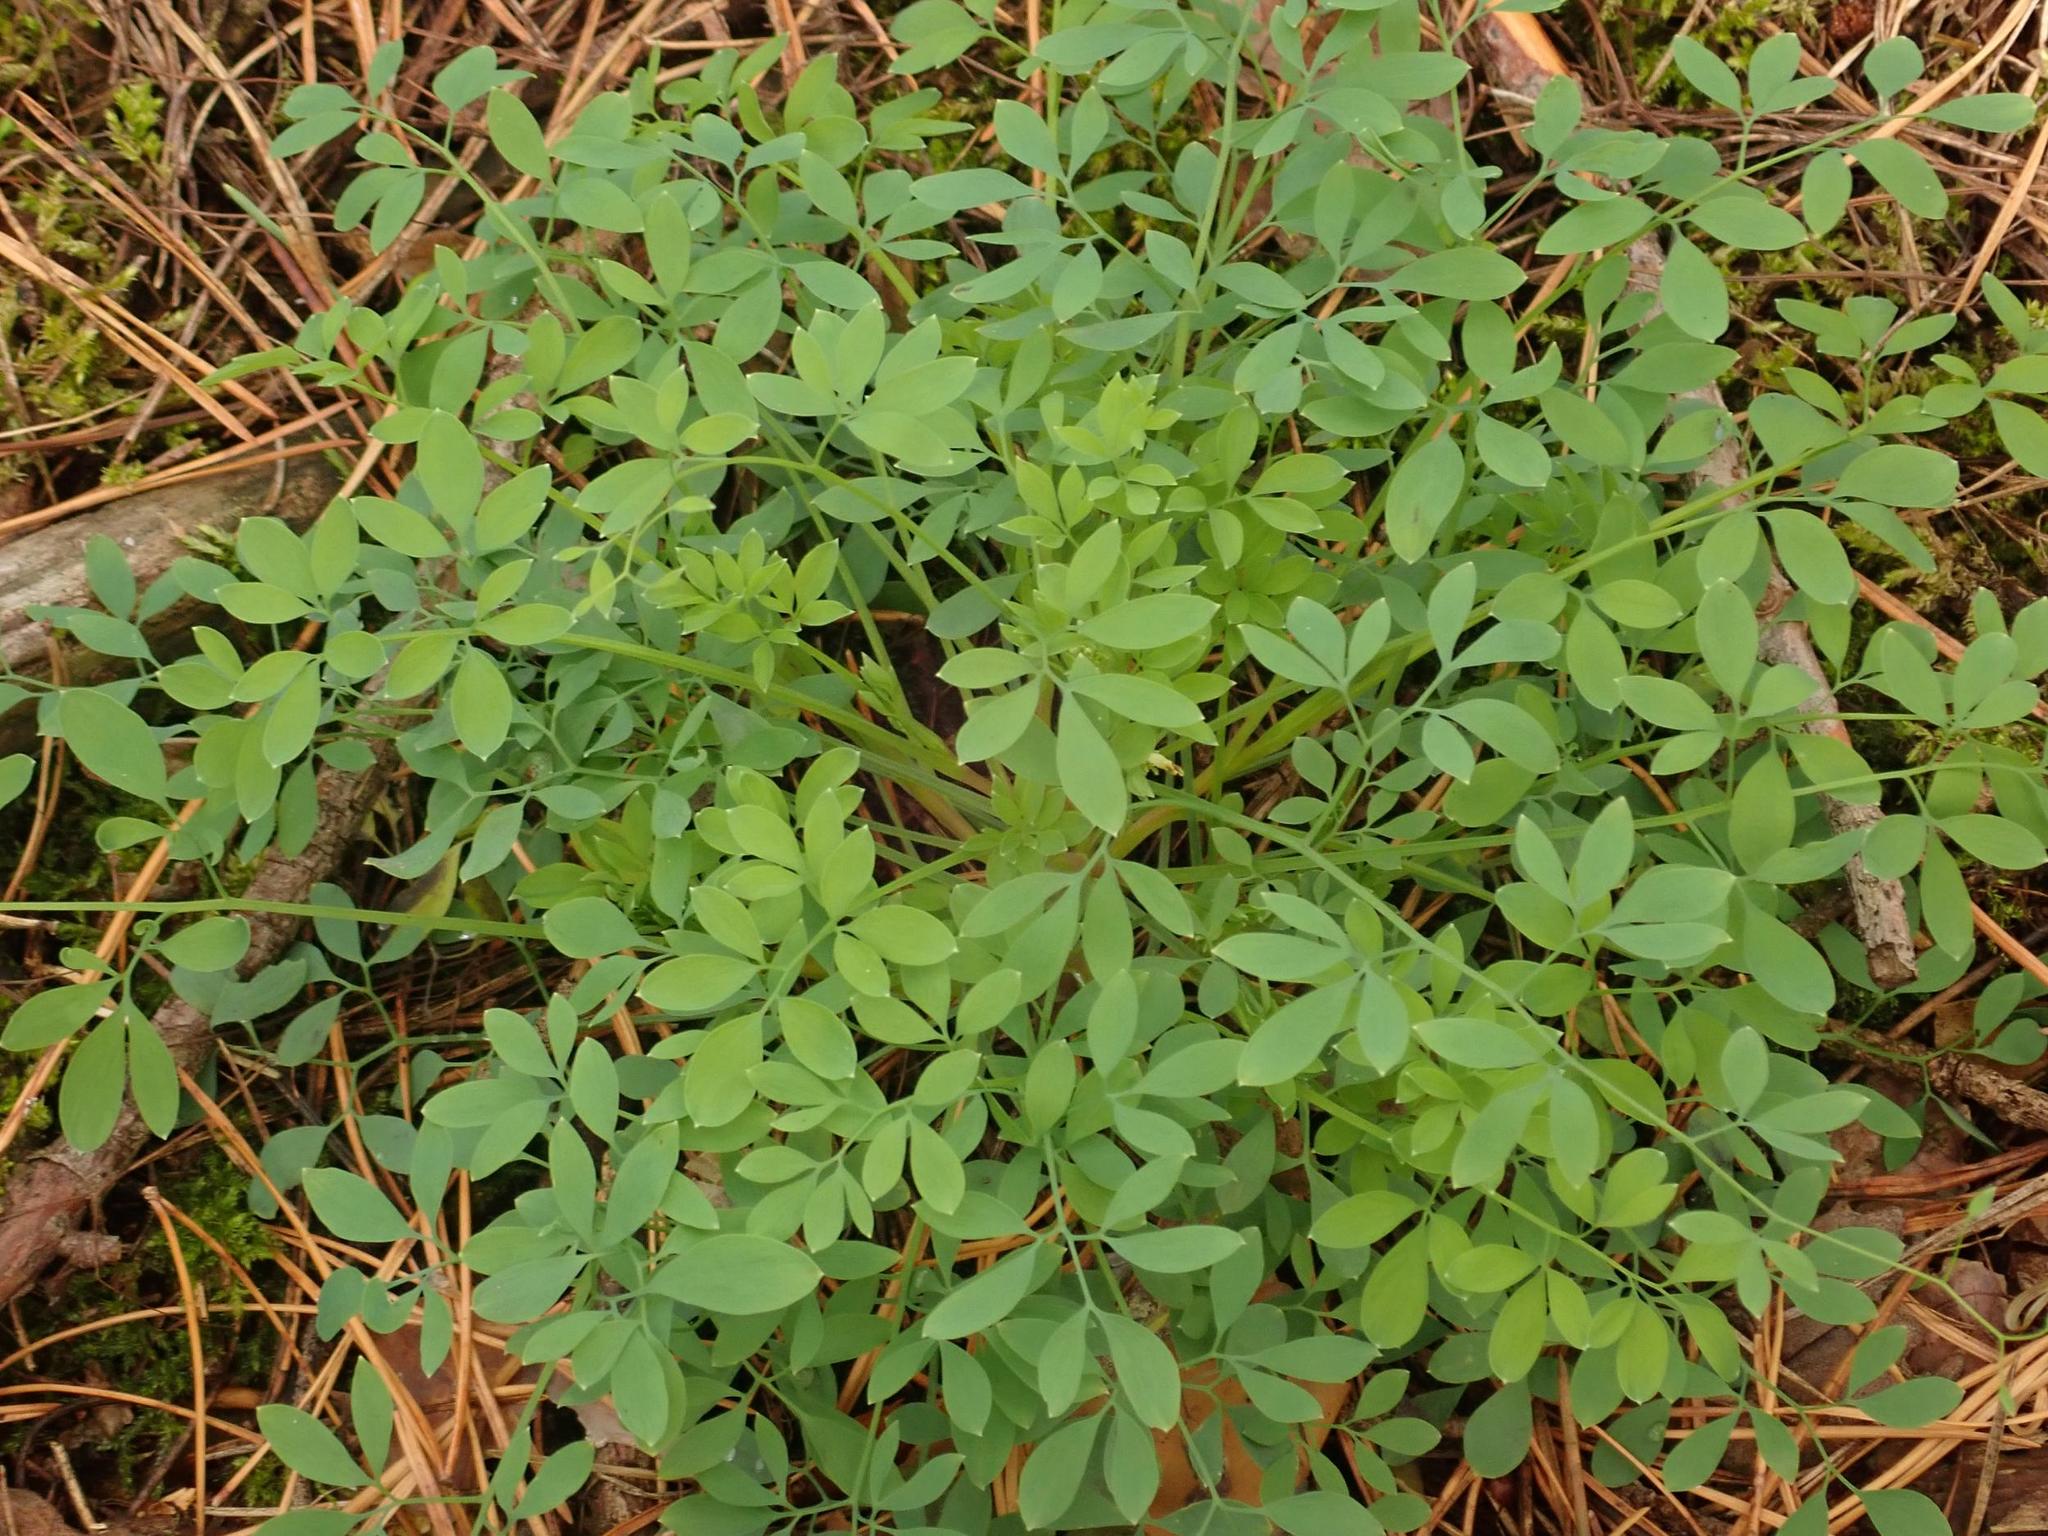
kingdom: Plantae
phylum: Tracheophyta
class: Magnoliopsida
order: Ranunculales
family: Papaveraceae
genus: Ceratocapnos
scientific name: Ceratocapnos claviculata
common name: Climbing corydalis
